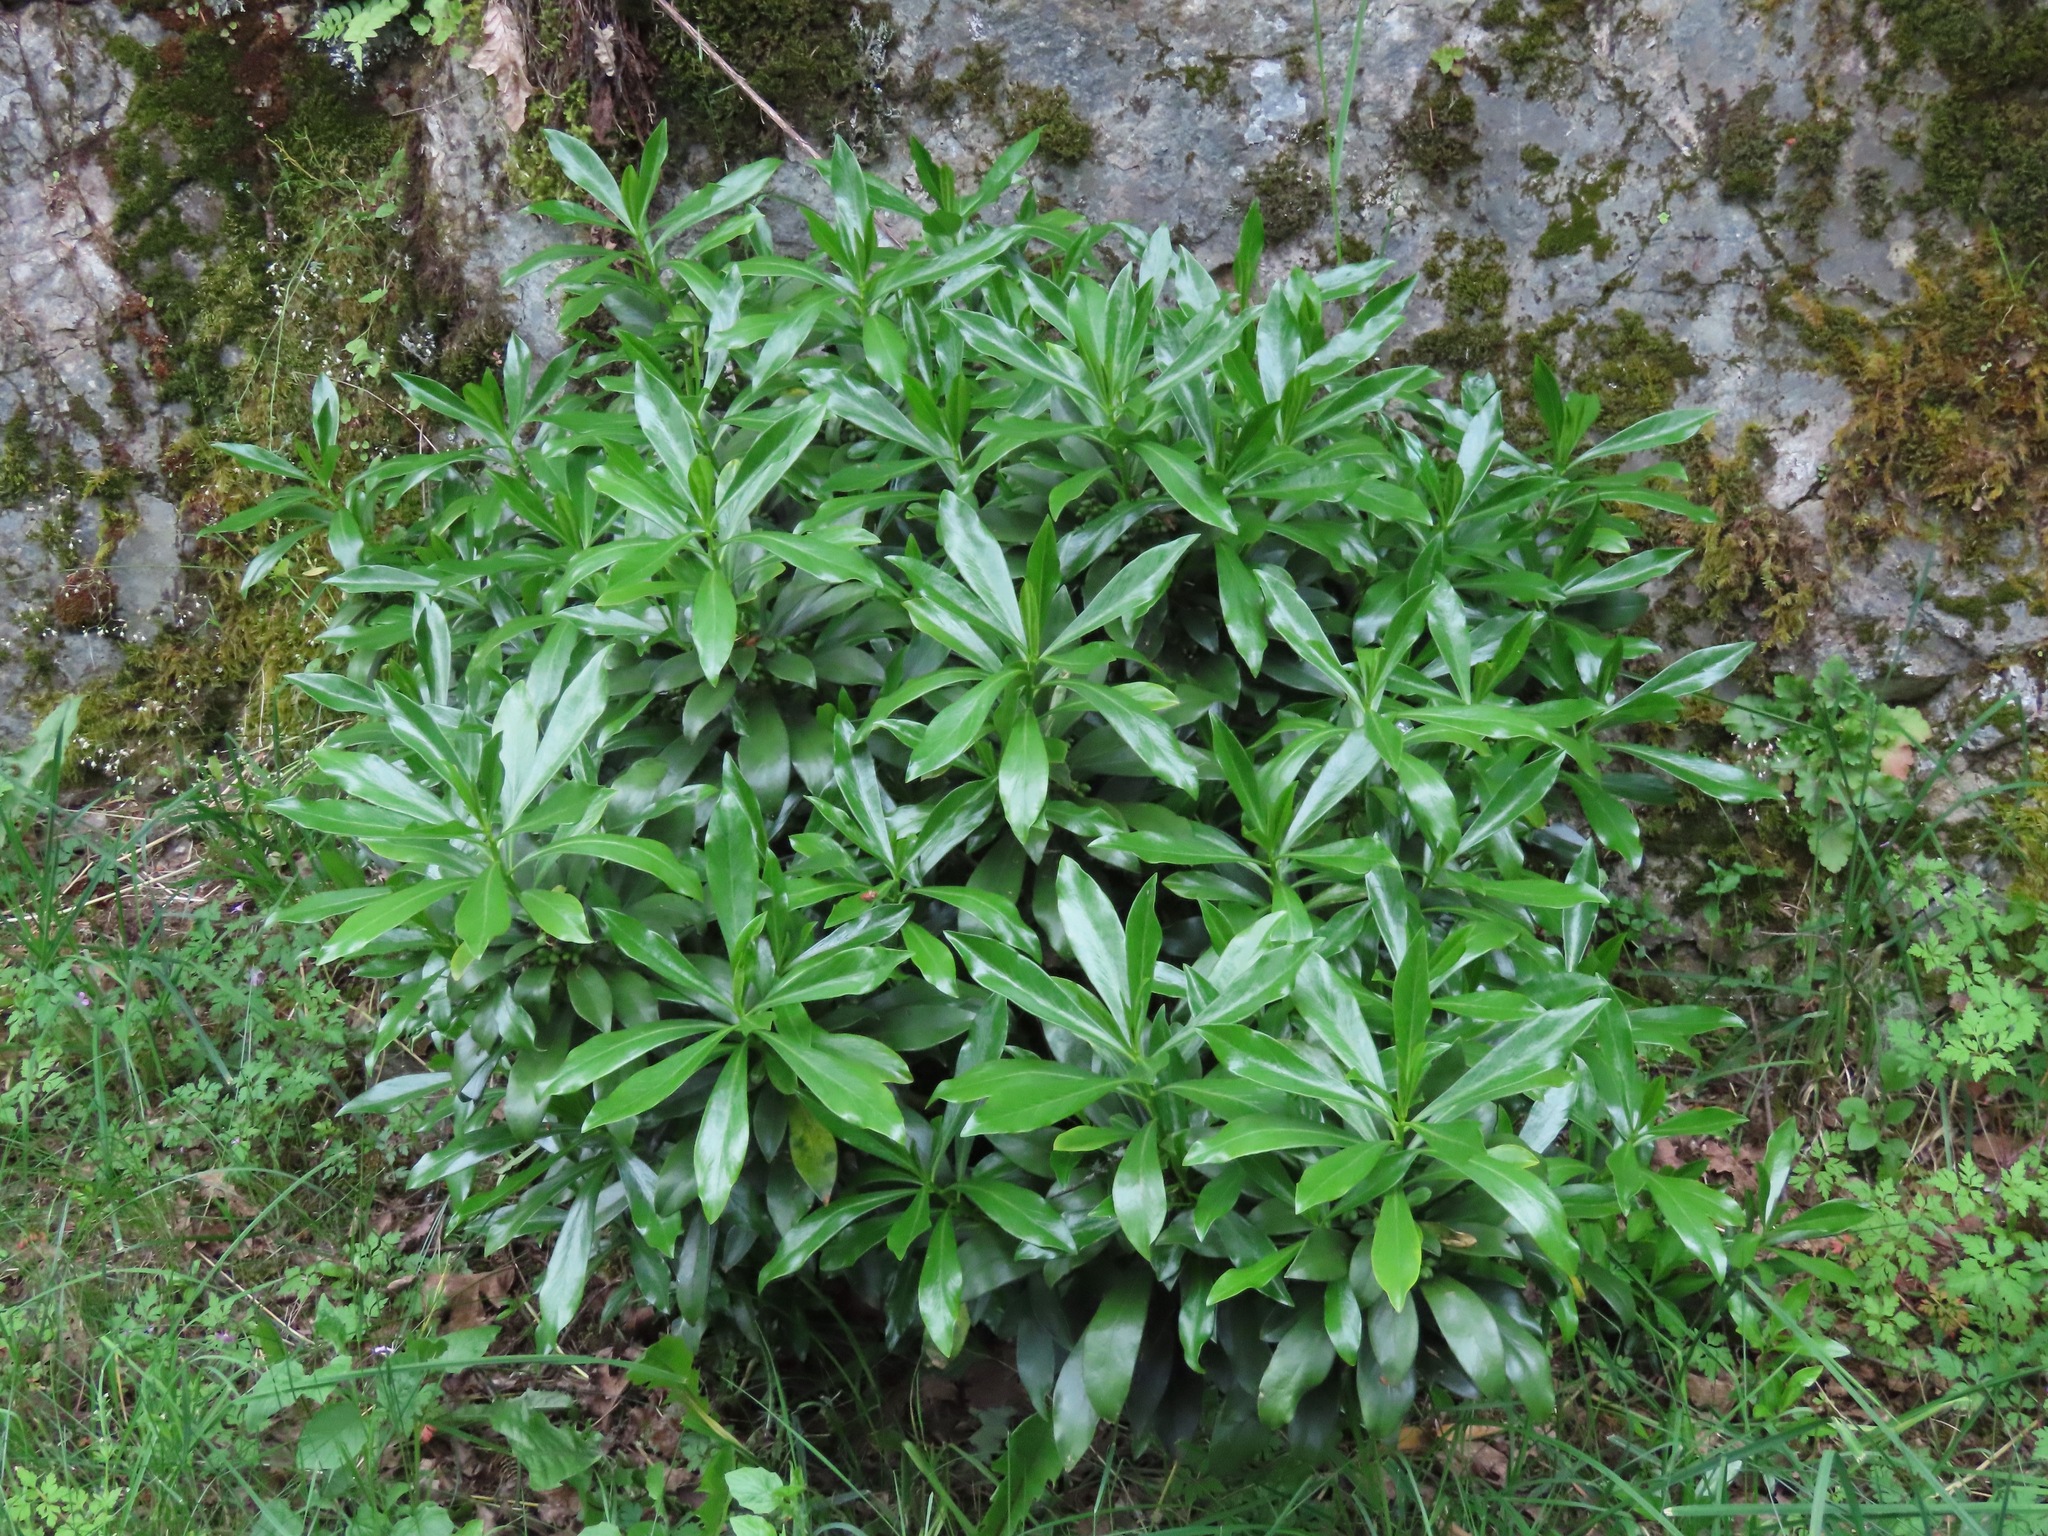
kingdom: Plantae
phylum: Tracheophyta
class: Magnoliopsida
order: Malvales
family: Thymelaeaceae
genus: Daphne
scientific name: Daphne laureola
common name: Spurge-laurel
